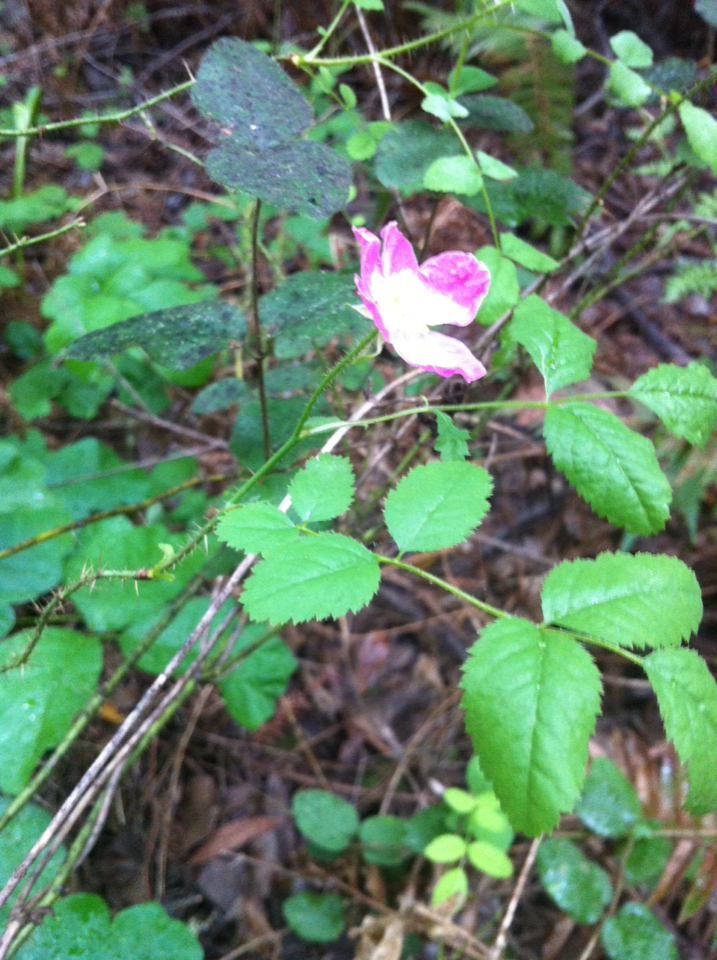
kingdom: Plantae
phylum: Tracheophyta
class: Magnoliopsida
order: Rosales
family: Rosaceae
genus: Rosa
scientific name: Rosa gymnocarpa
